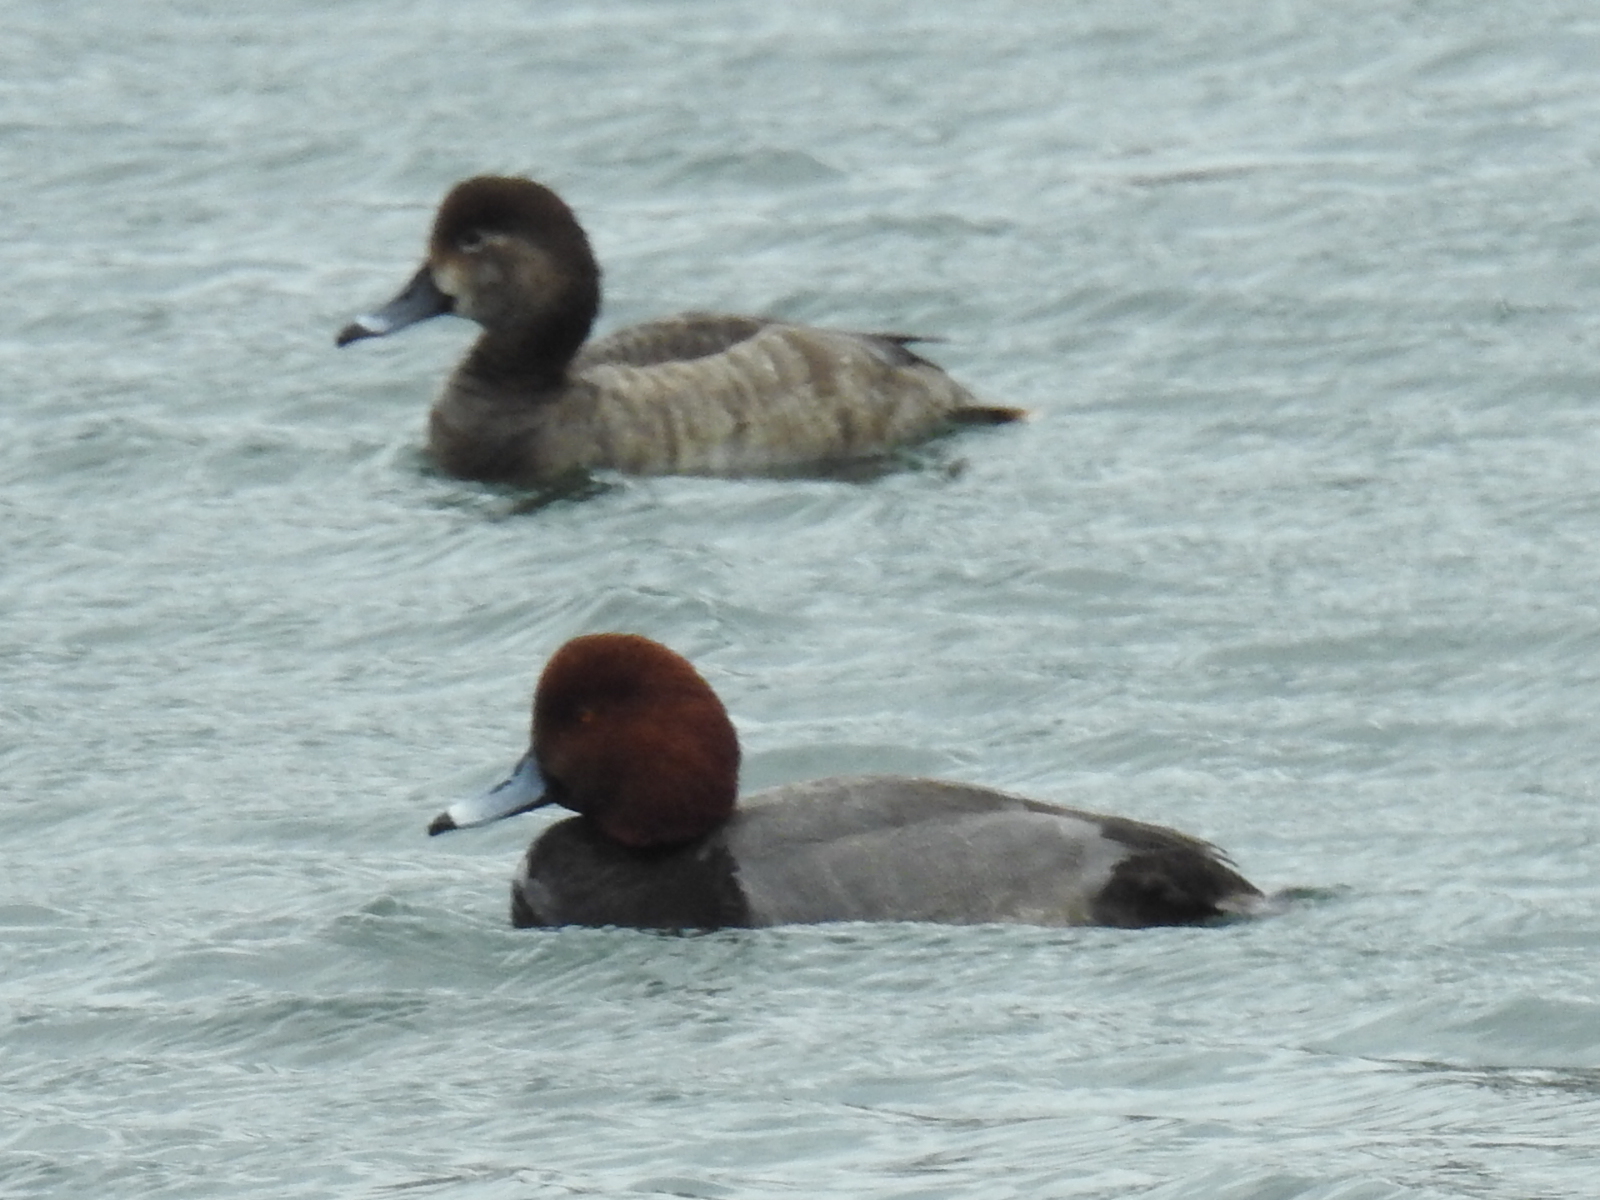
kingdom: Animalia
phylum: Chordata
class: Aves
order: Anseriformes
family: Anatidae
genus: Aythya
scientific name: Aythya americana
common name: Redhead
